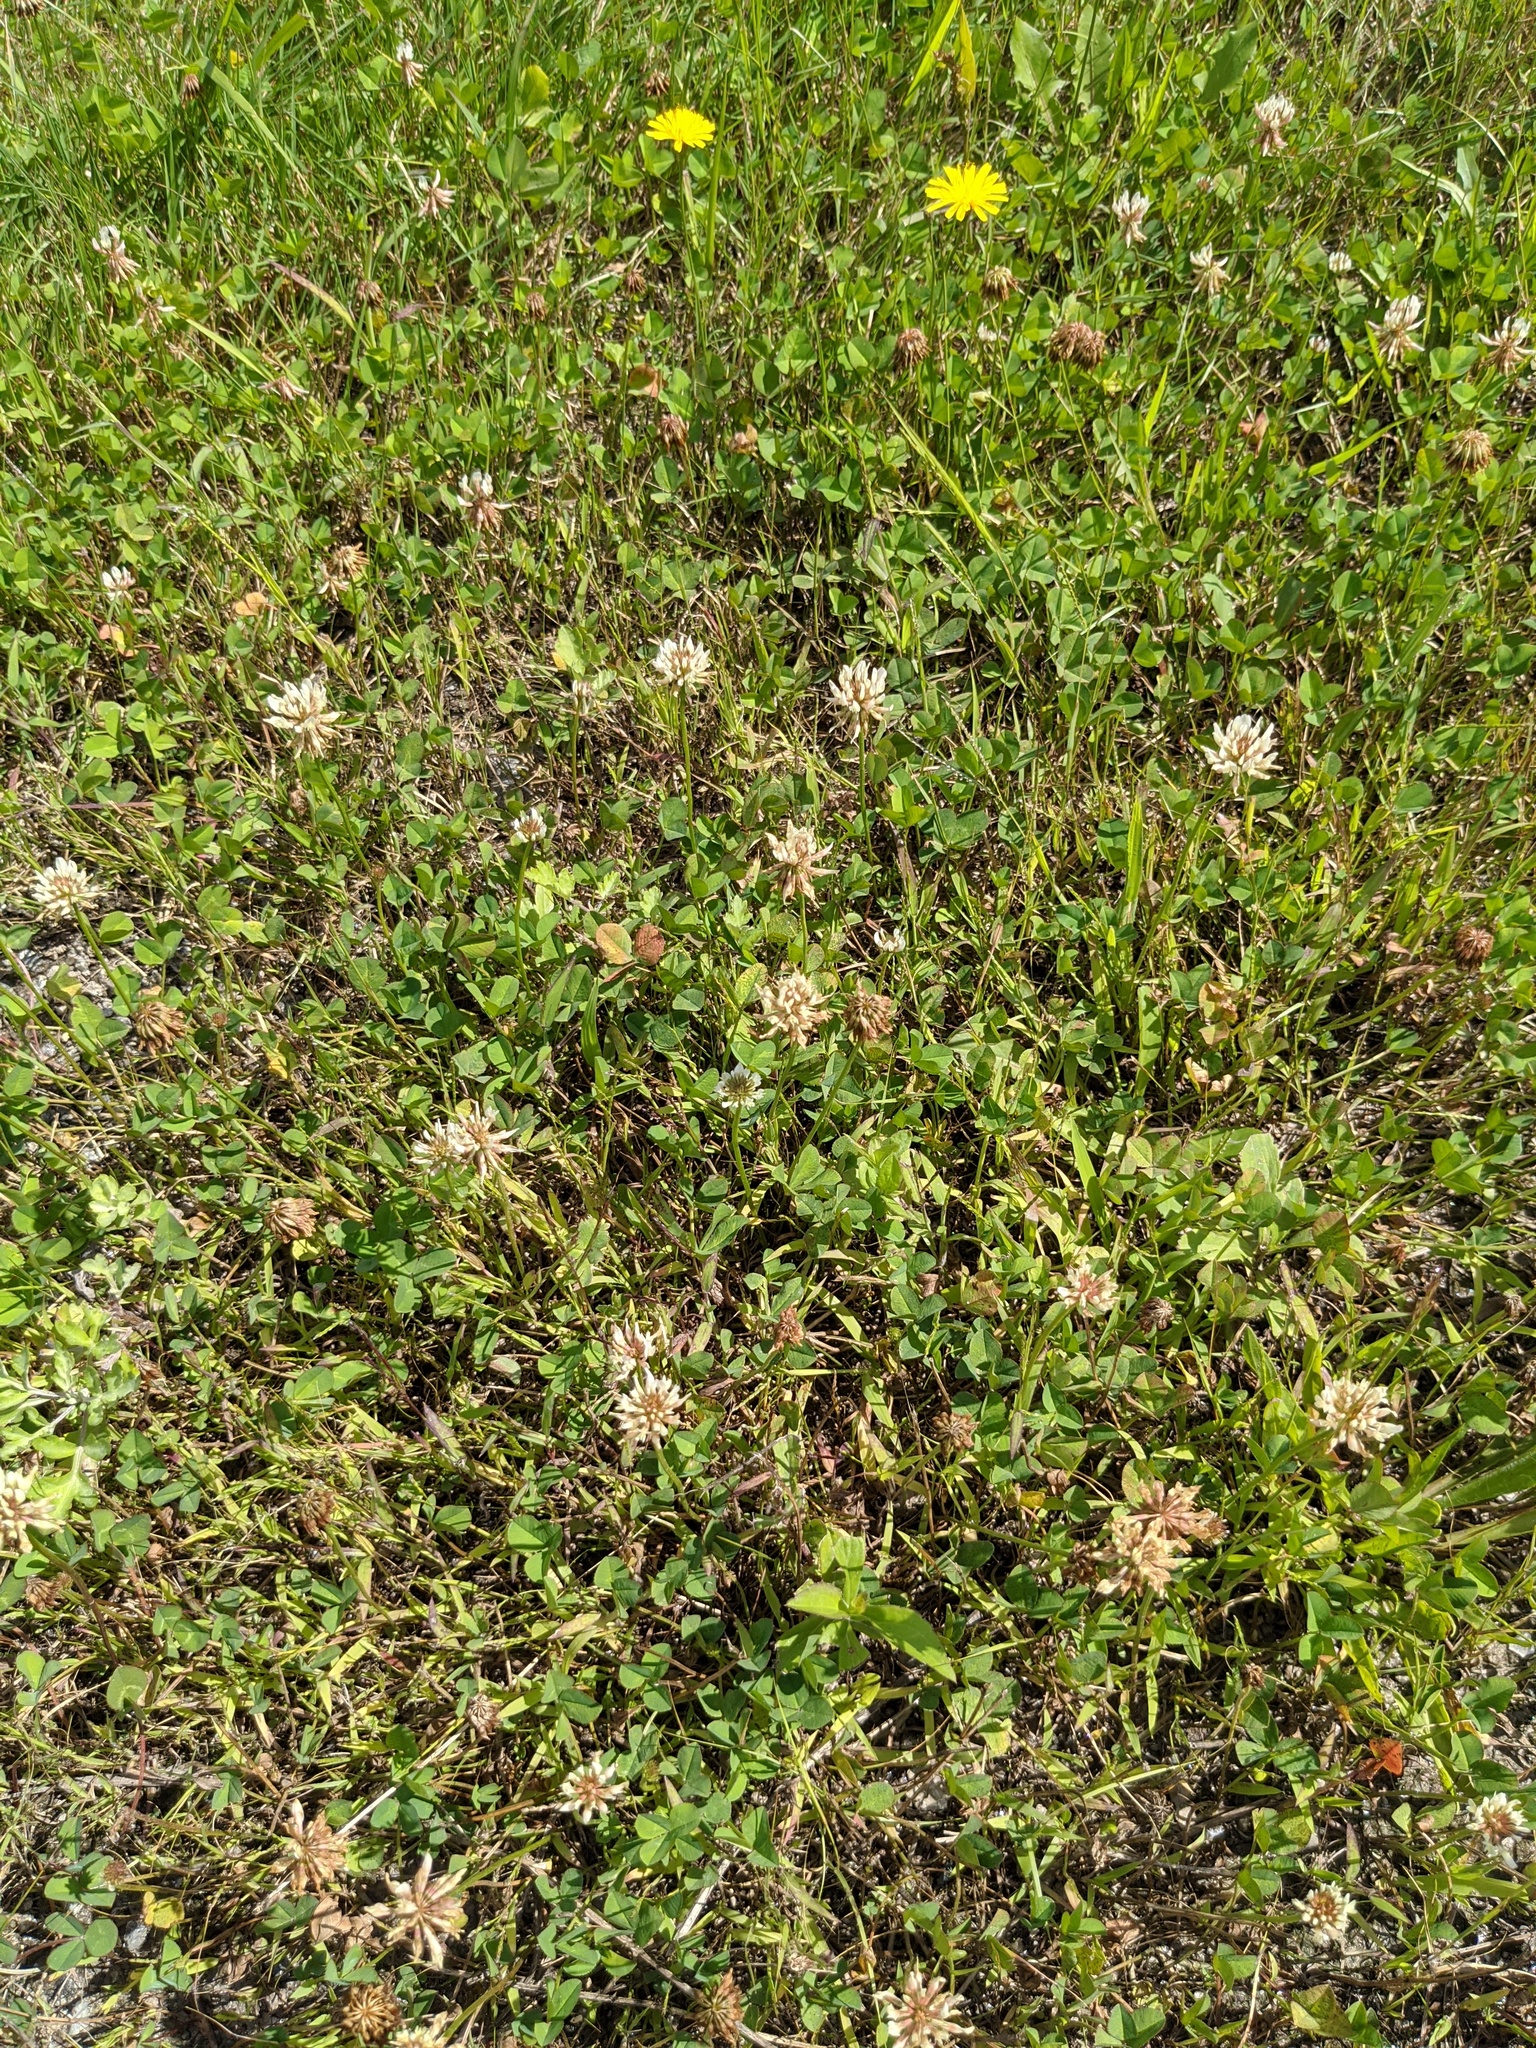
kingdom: Plantae
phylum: Tracheophyta
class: Magnoliopsida
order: Fabales
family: Fabaceae
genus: Trifolium
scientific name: Trifolium repens
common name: White clover
